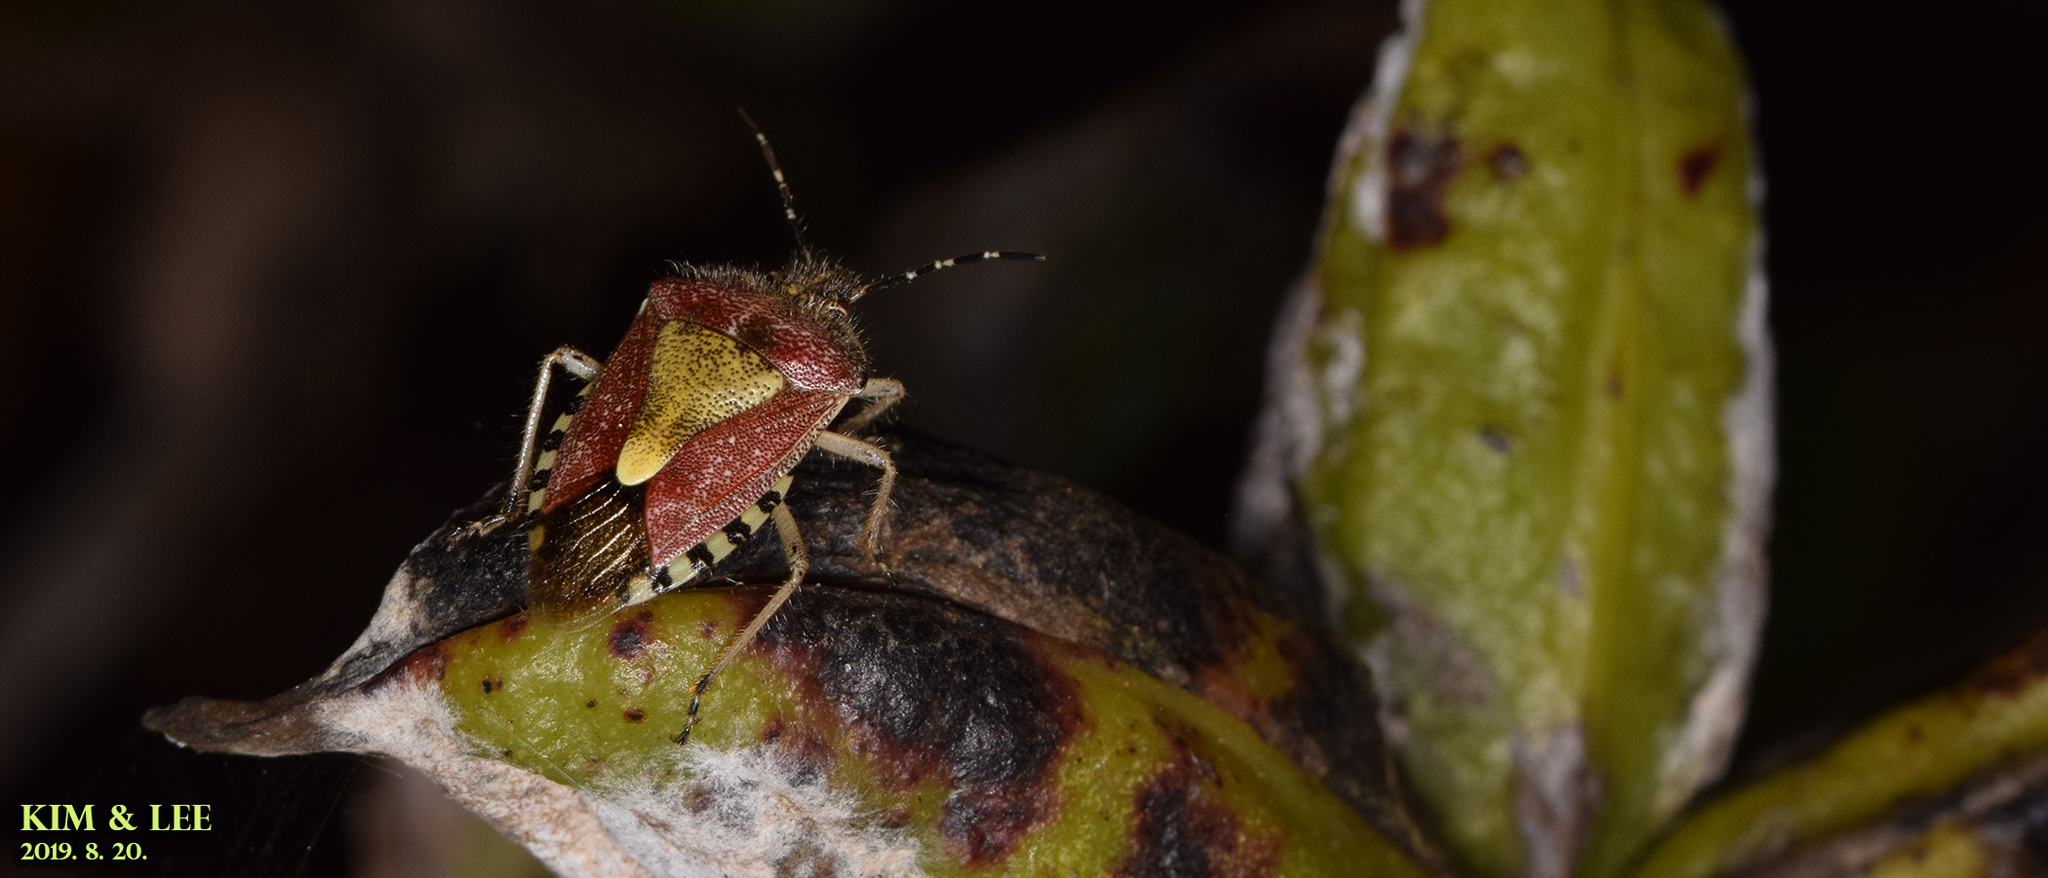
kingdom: Animalia
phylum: Arthropoda
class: Insecta
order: Hemiptera
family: Pentatomidae
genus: Dolycoris
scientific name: Dolycoris baccarum
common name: Sloe bug
